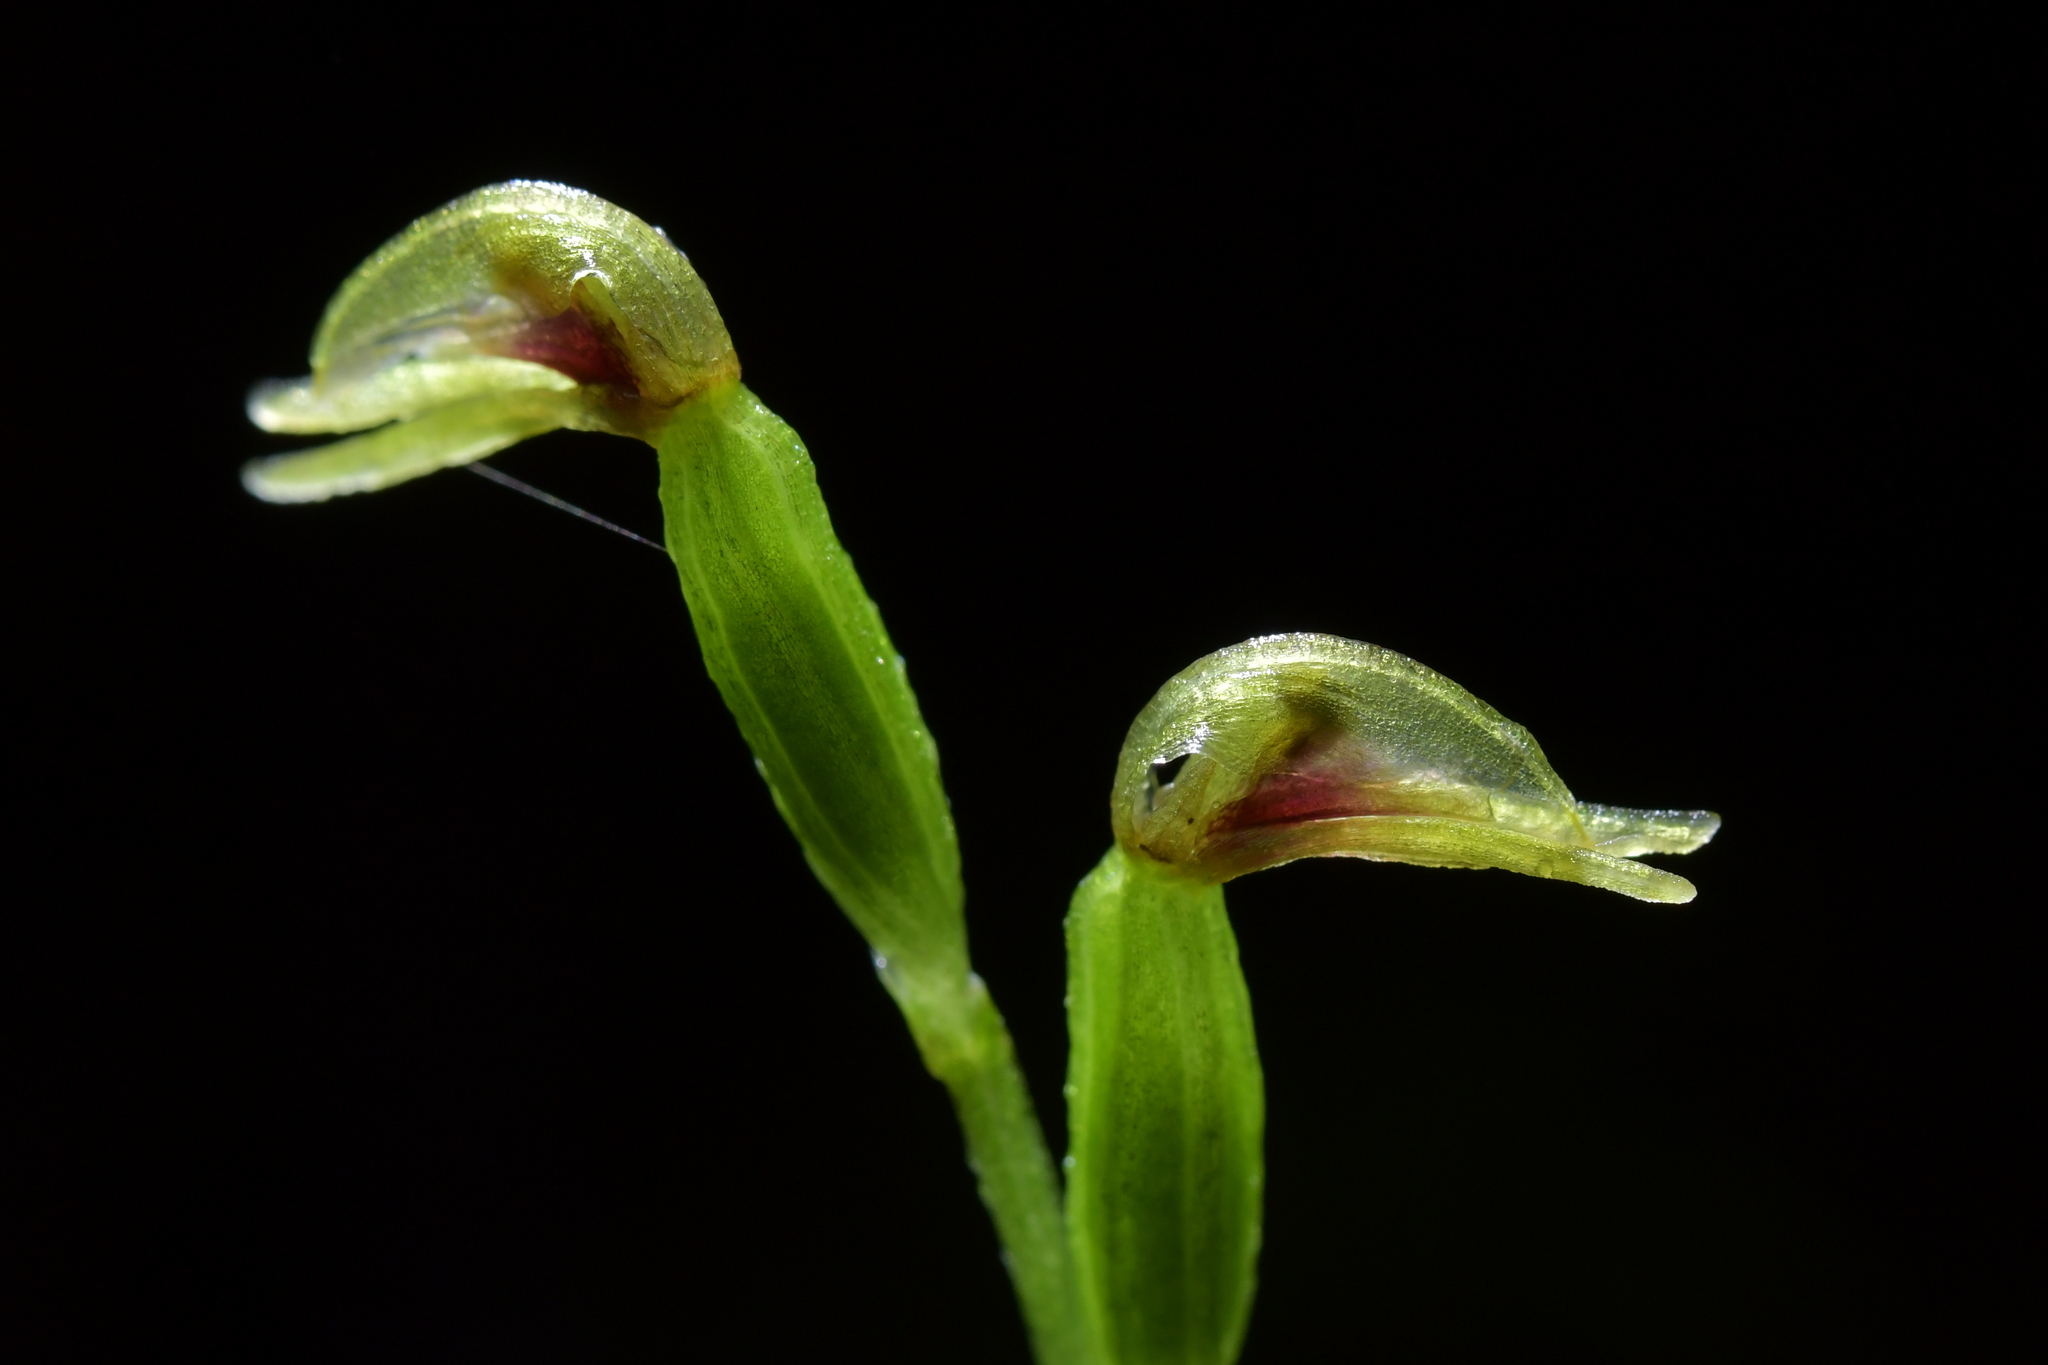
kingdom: Plantae
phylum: Tracheophyta
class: Liliopsida
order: Asparagales
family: Orchidaceae
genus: Townsonia
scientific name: Townsonia deflexa
